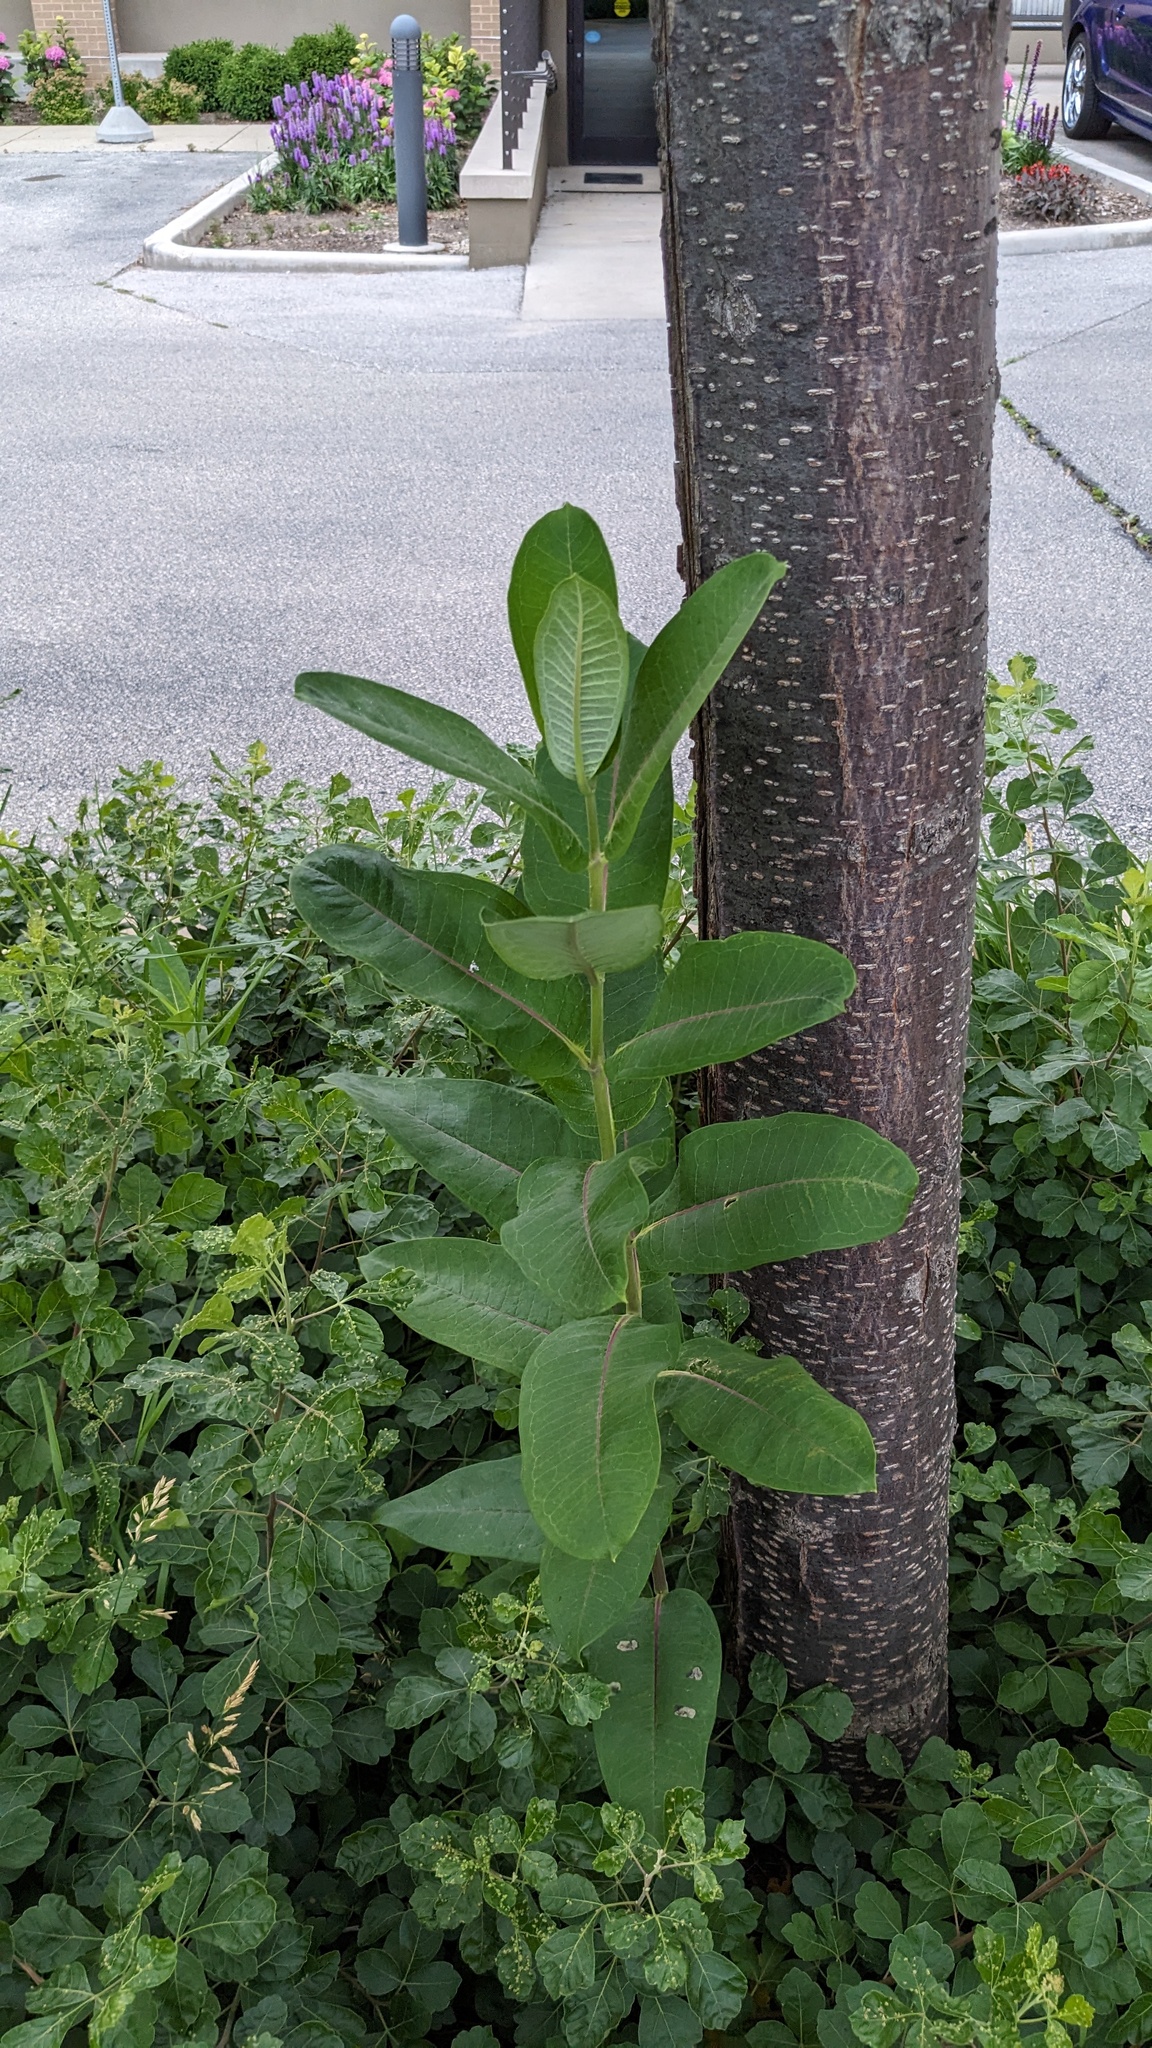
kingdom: Plantae
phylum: Tracheophyta
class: Magnoliopsida
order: Gentianales
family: Apocynaceae
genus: Asclepias
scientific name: Asclepias syriaca
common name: Common milkweed
